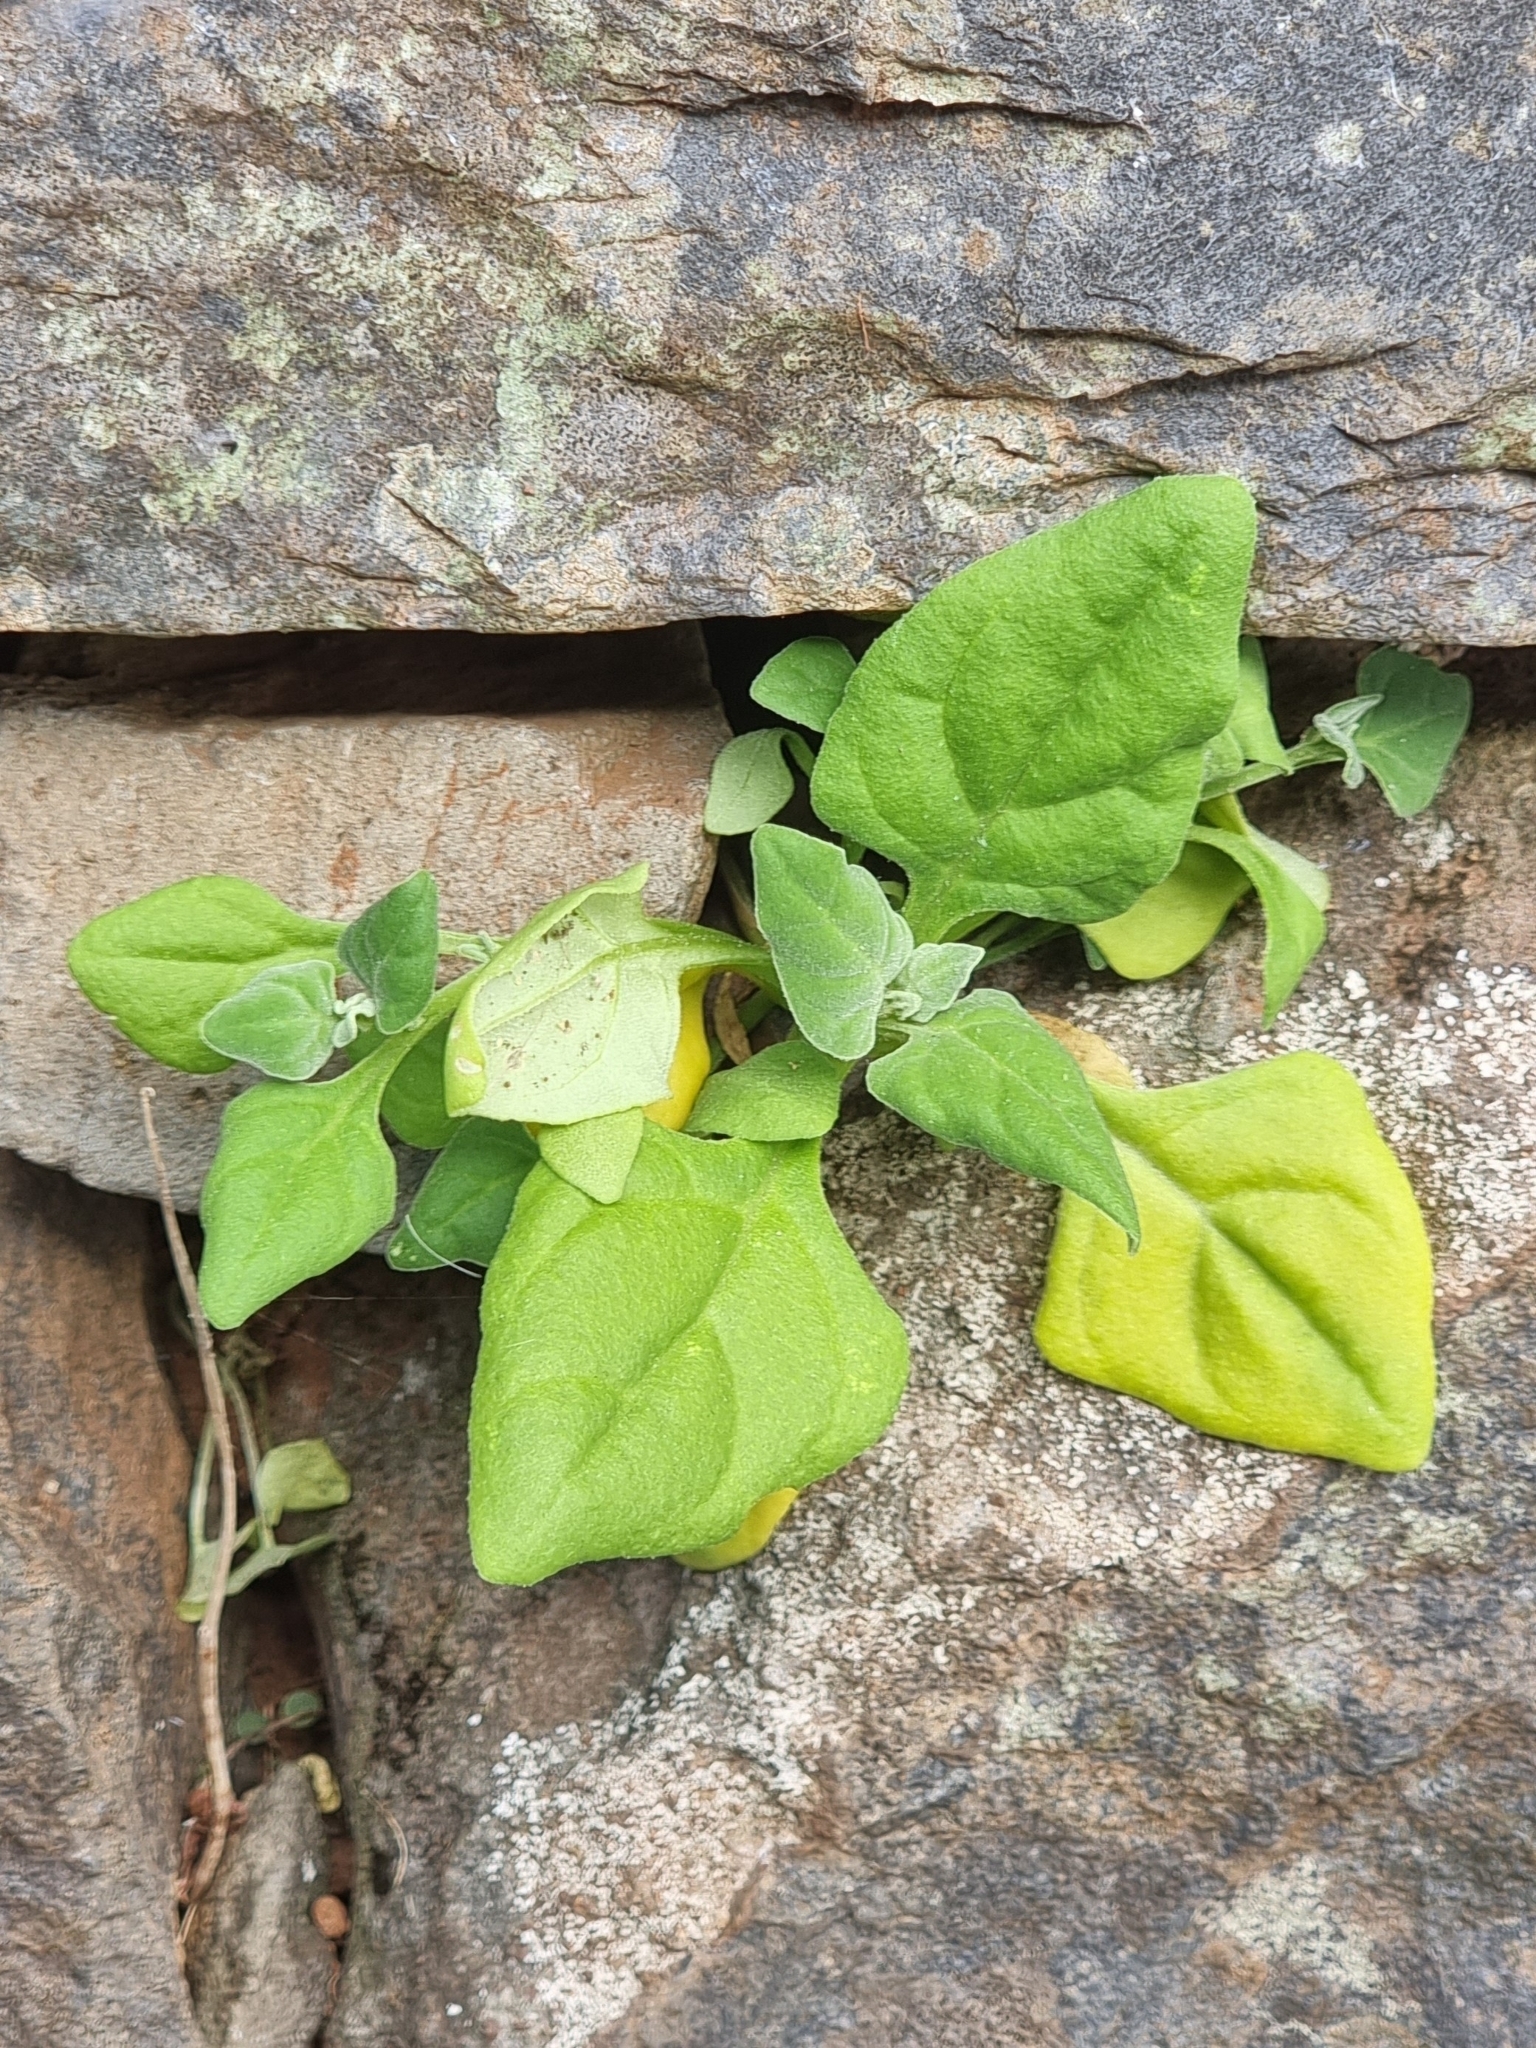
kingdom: Plantae
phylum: Tracheophyta
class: Magnoliopsida
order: Caryophyllales
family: Aizoaceae
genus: Tetragonia
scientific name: Tetragonia tetragonoides
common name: New zealand-spinach
